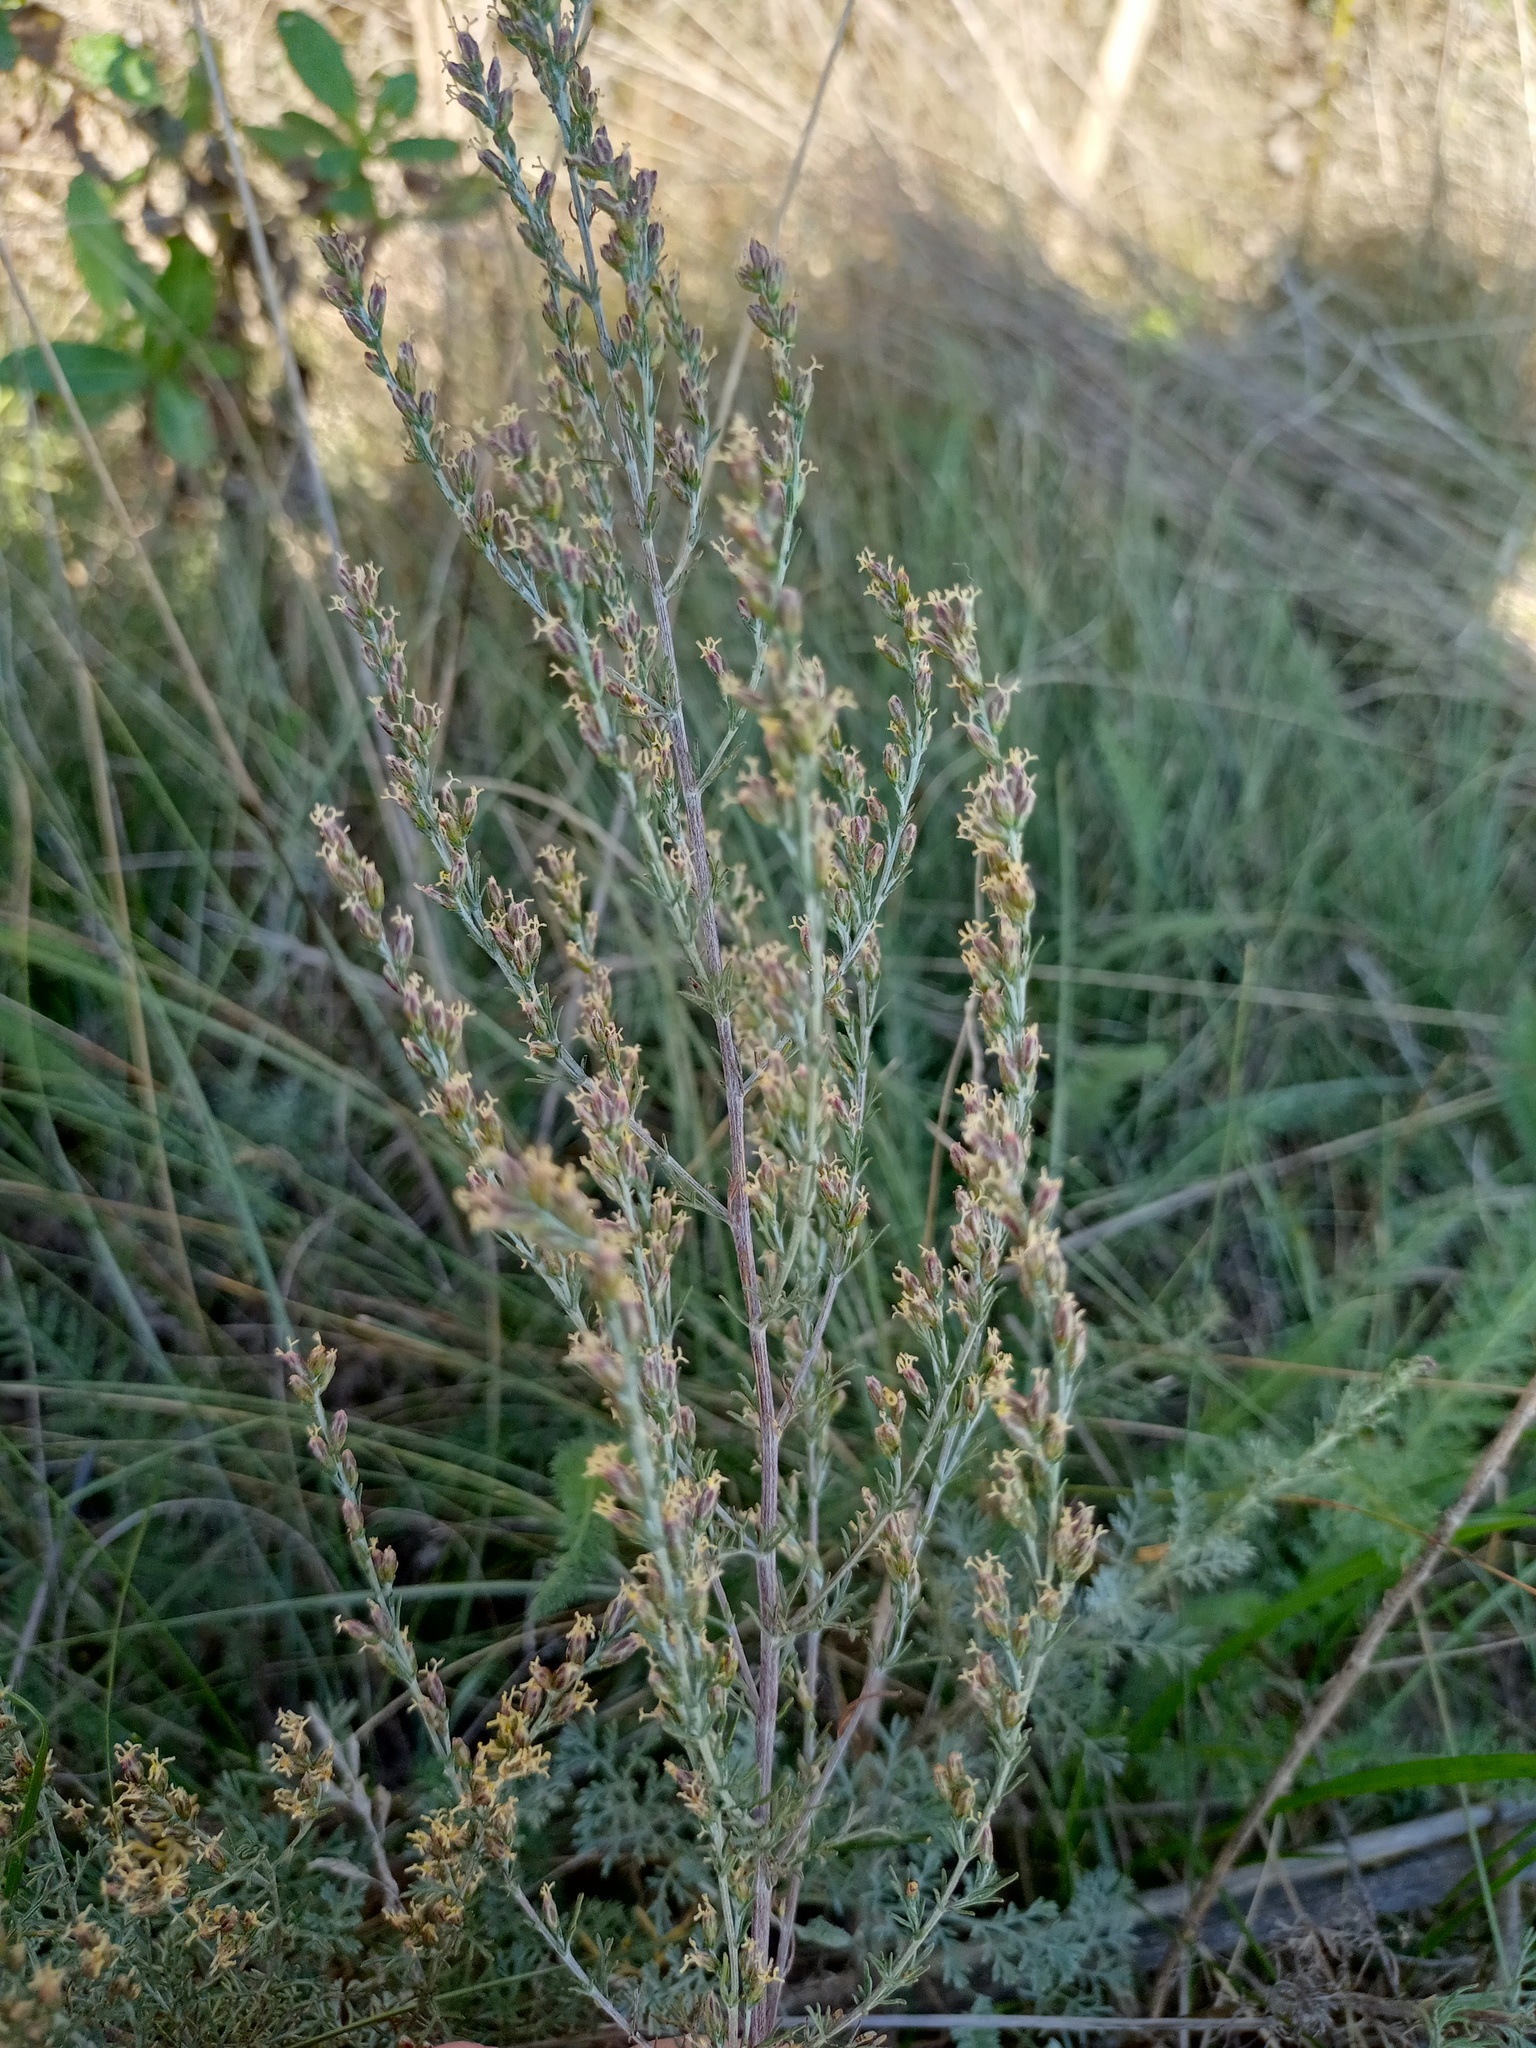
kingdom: Plantae
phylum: Tracheophyta
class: Magnoliopsida
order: Asterales
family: Asteraceae
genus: Artemisia
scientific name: Artemisia santonicum
